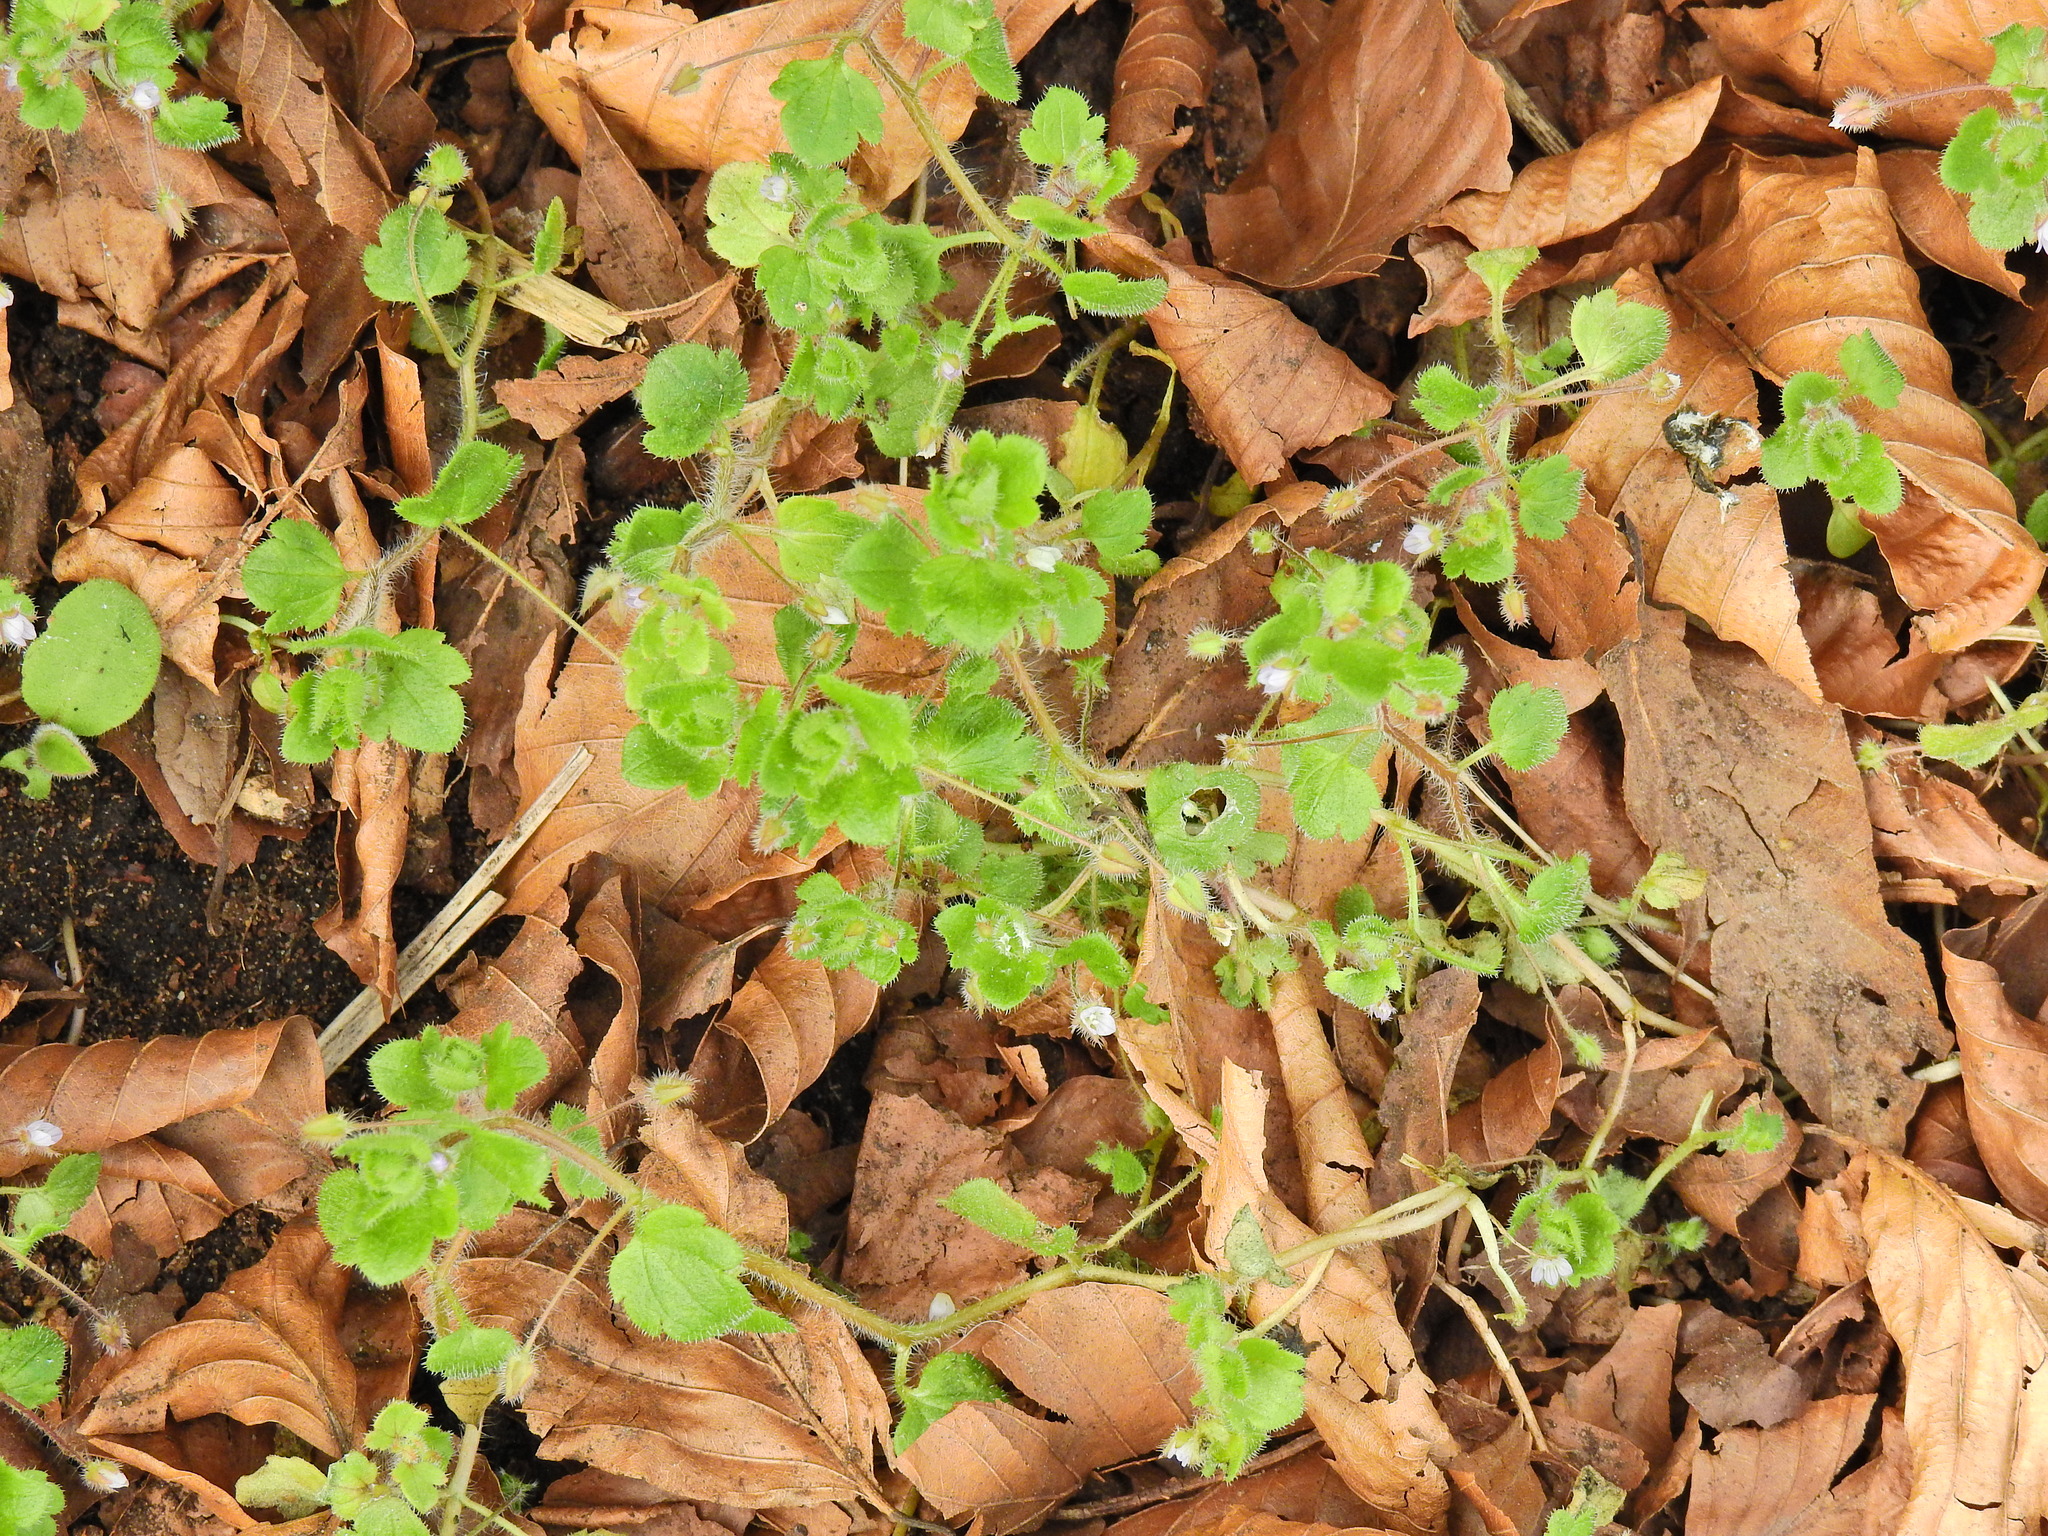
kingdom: Plantae
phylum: Tracheophyta
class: Magnoliopsida
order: Lamiales
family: Plantaginaceae
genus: Veronica
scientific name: Veronica sublobata
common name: False ivy-leaved speedwell
